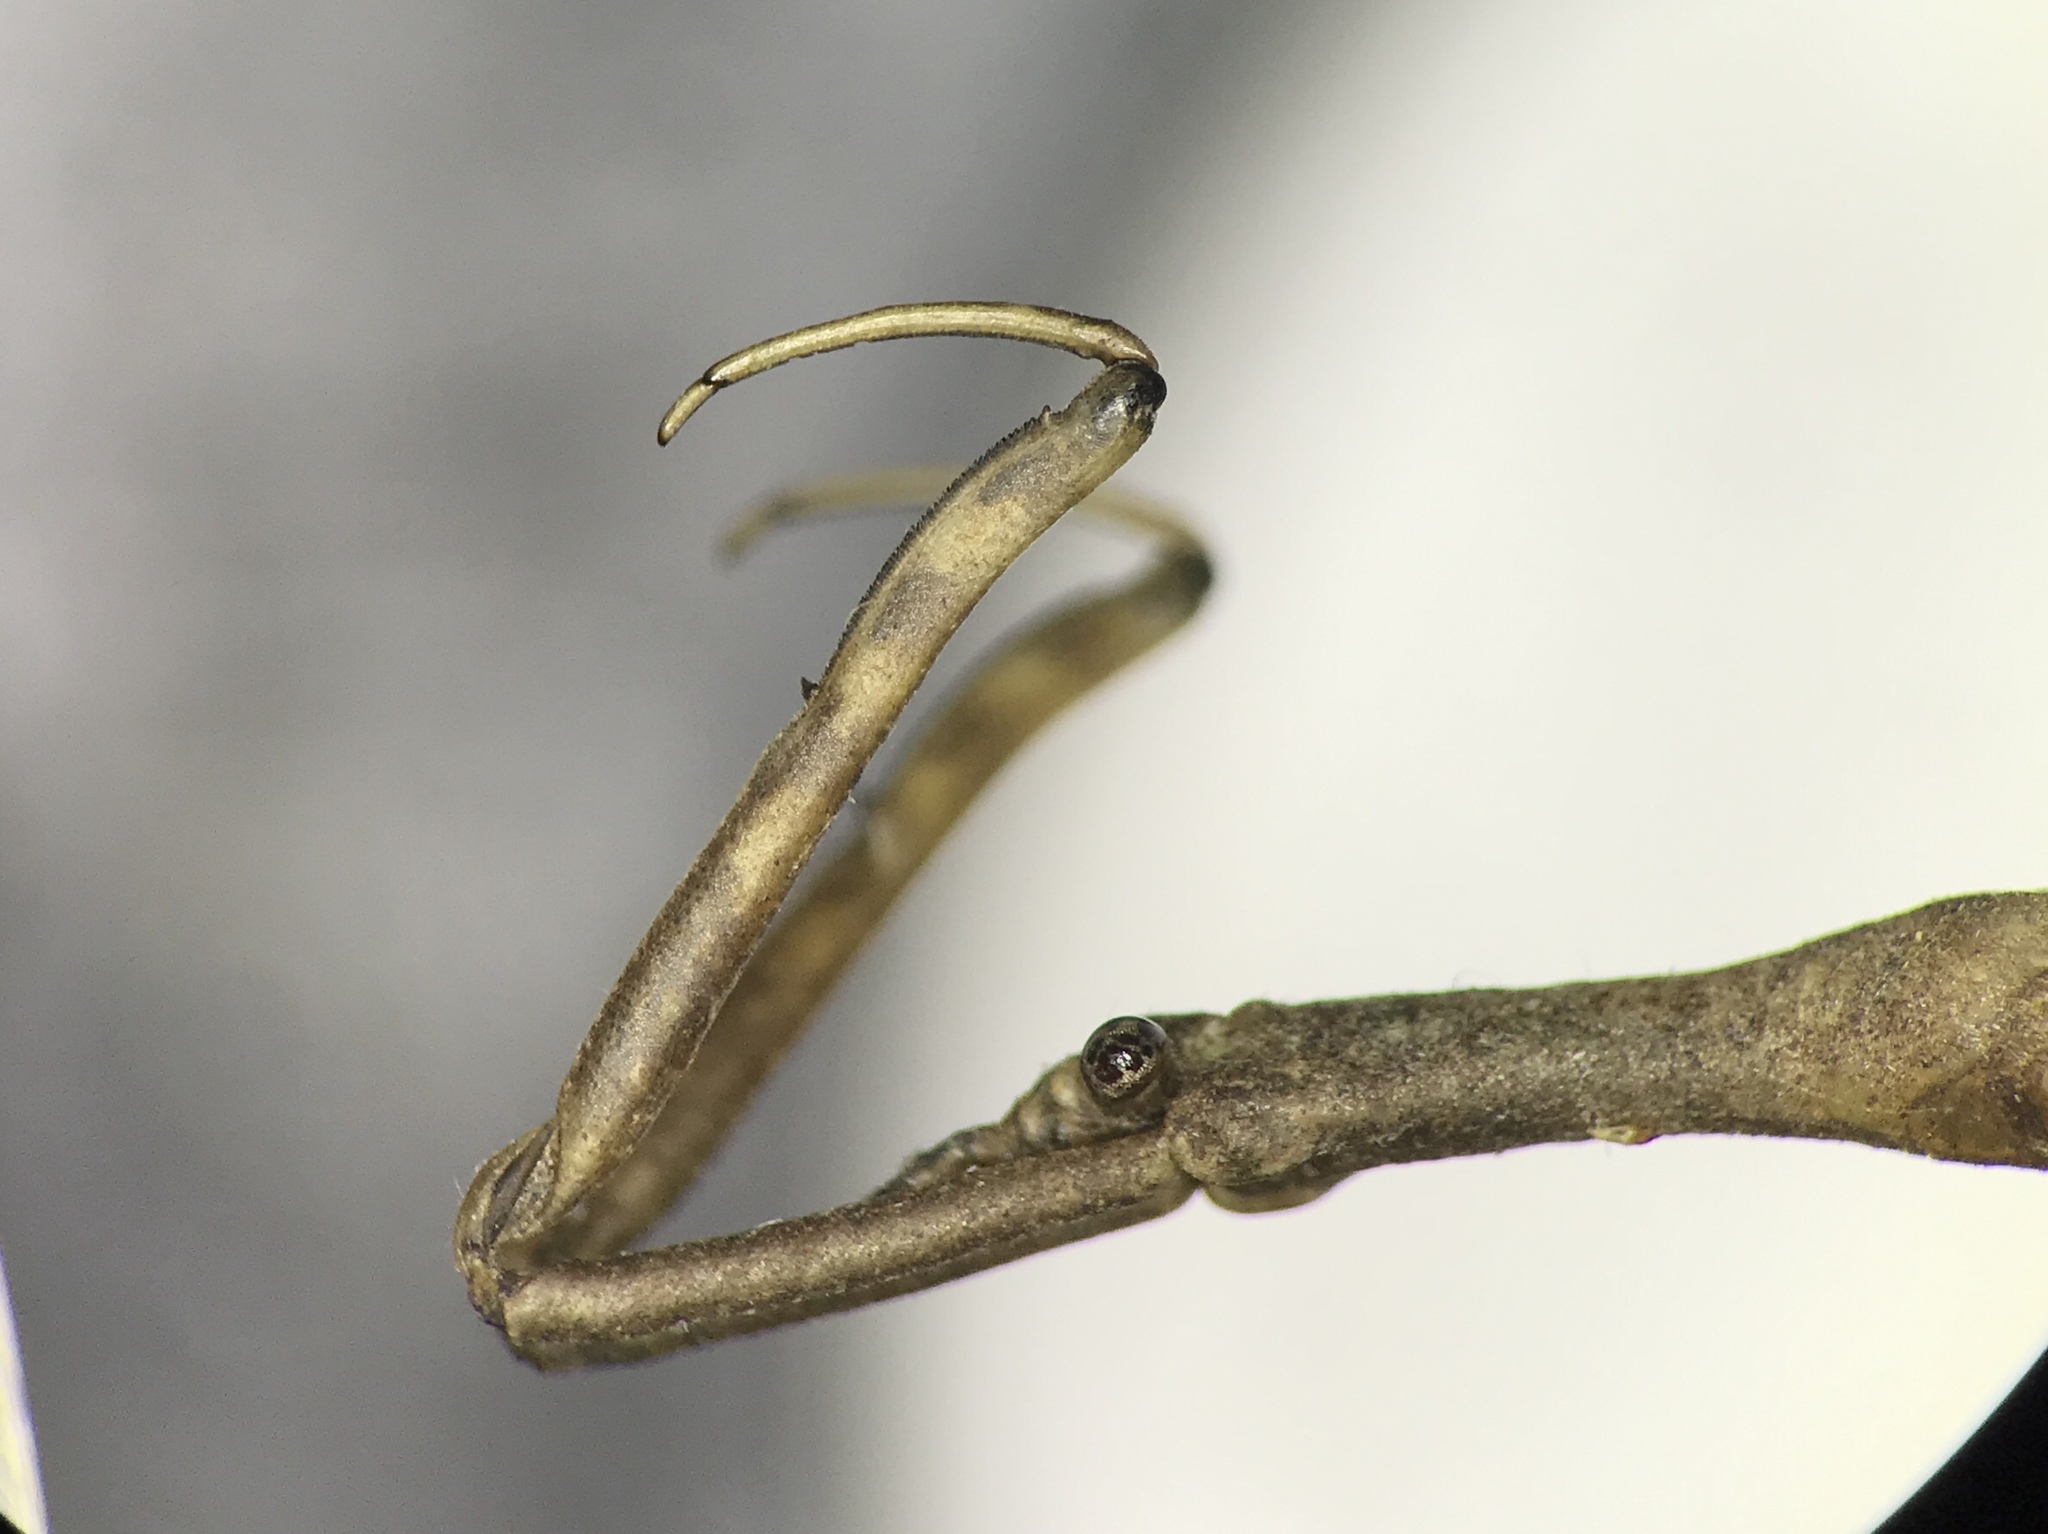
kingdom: Animalia
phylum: Arthropoda
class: Insecta
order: Hemiptera
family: Nepidae
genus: Ranatra
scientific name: Ranatra kirkaldyi
